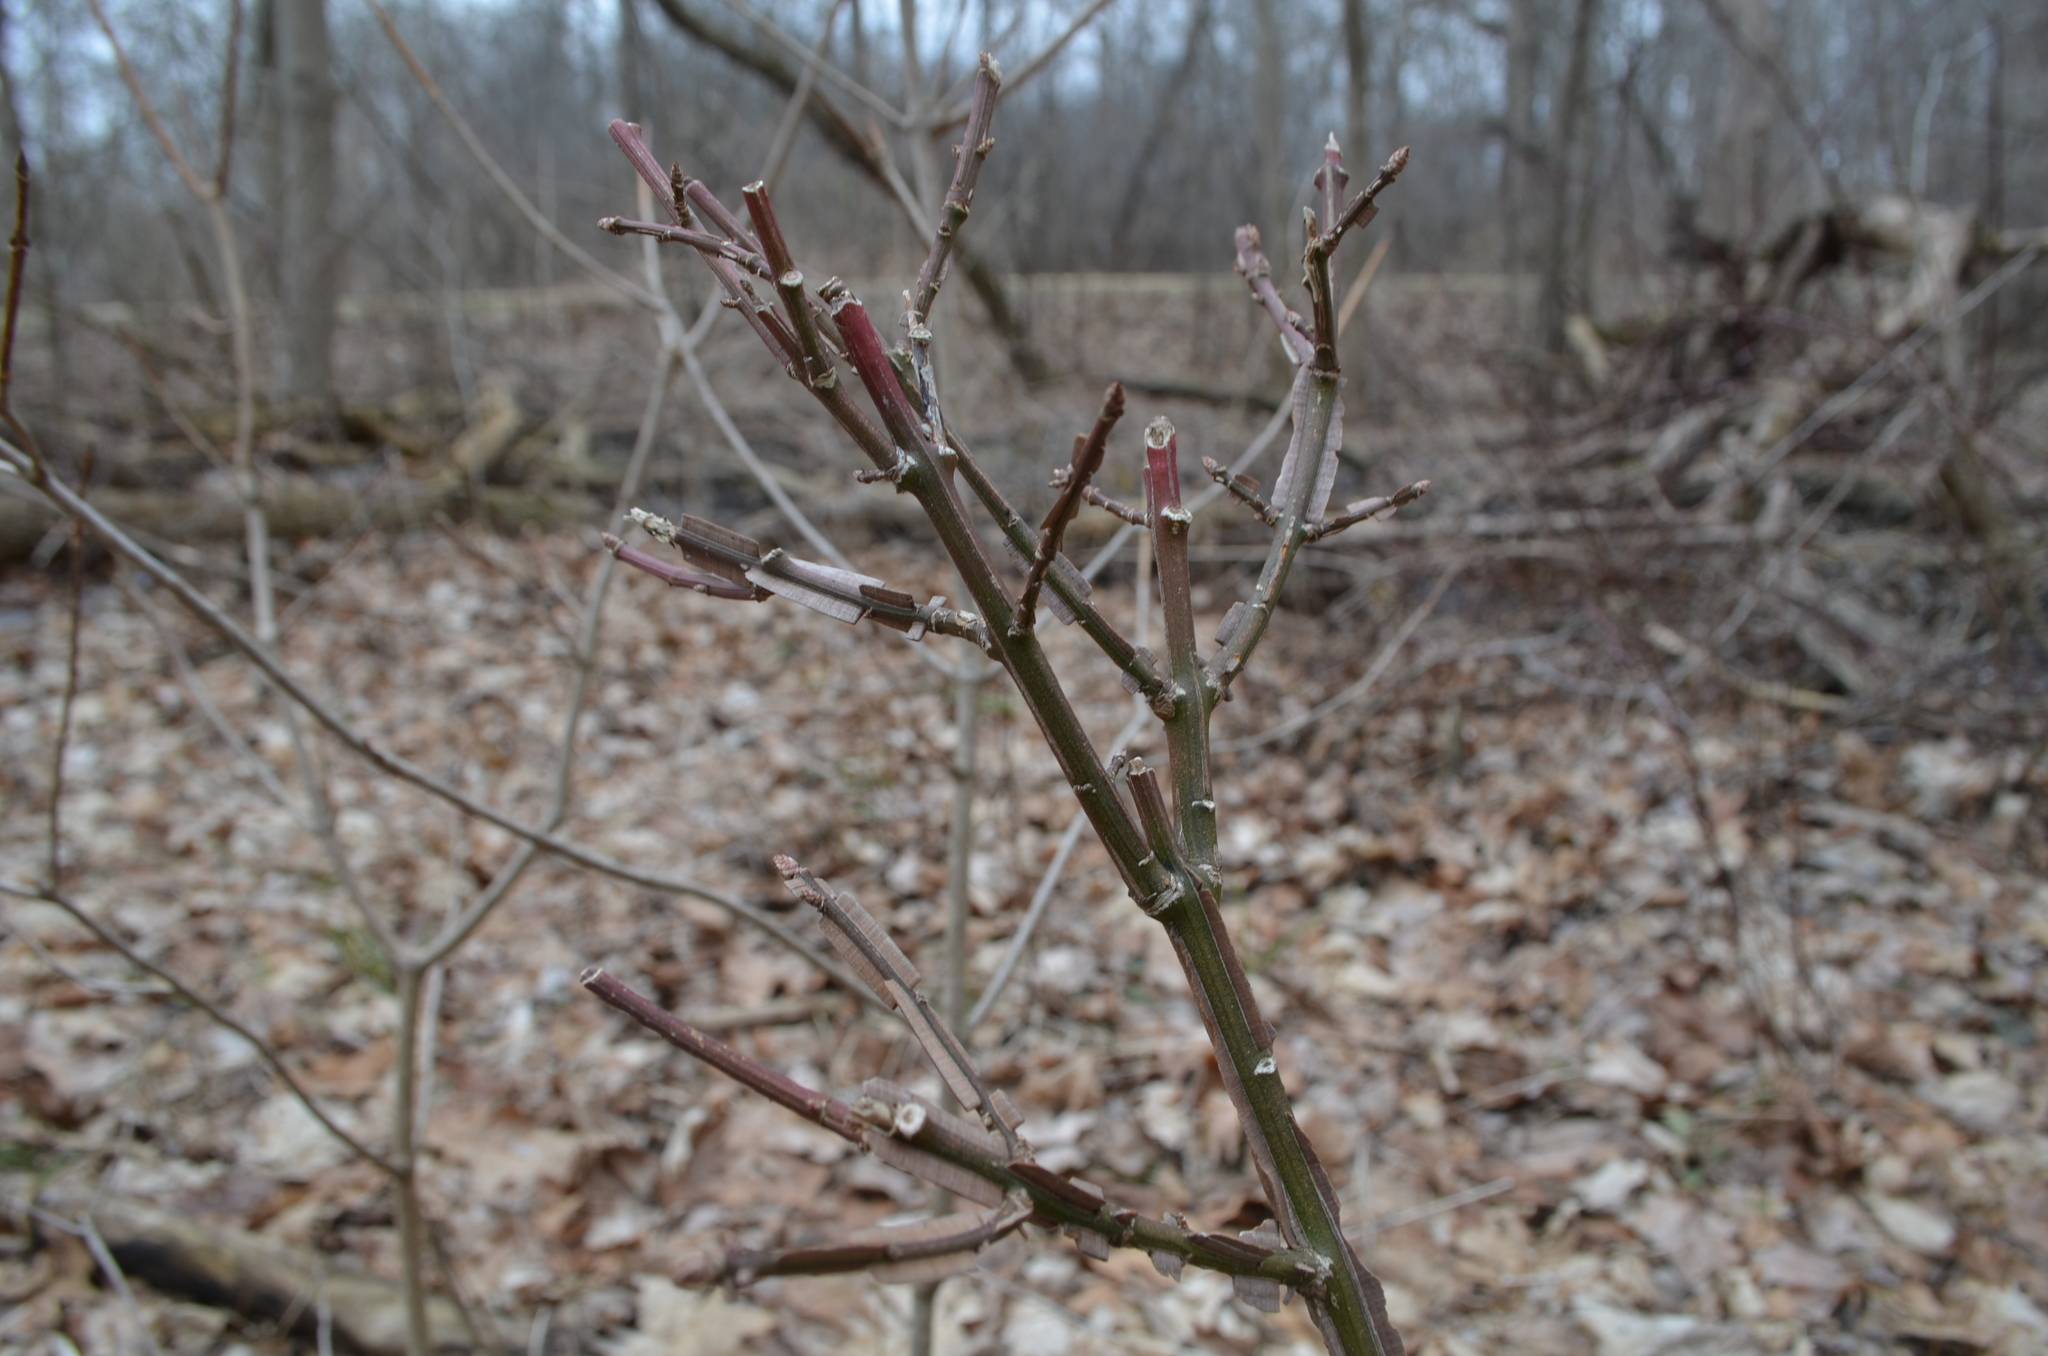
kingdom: Plantae
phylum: Tracheophyta
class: Magnoliopsida
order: Celastrales
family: Celastraceae
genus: Euonymus
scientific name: Euonymus alatus
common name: Winged euonymus
